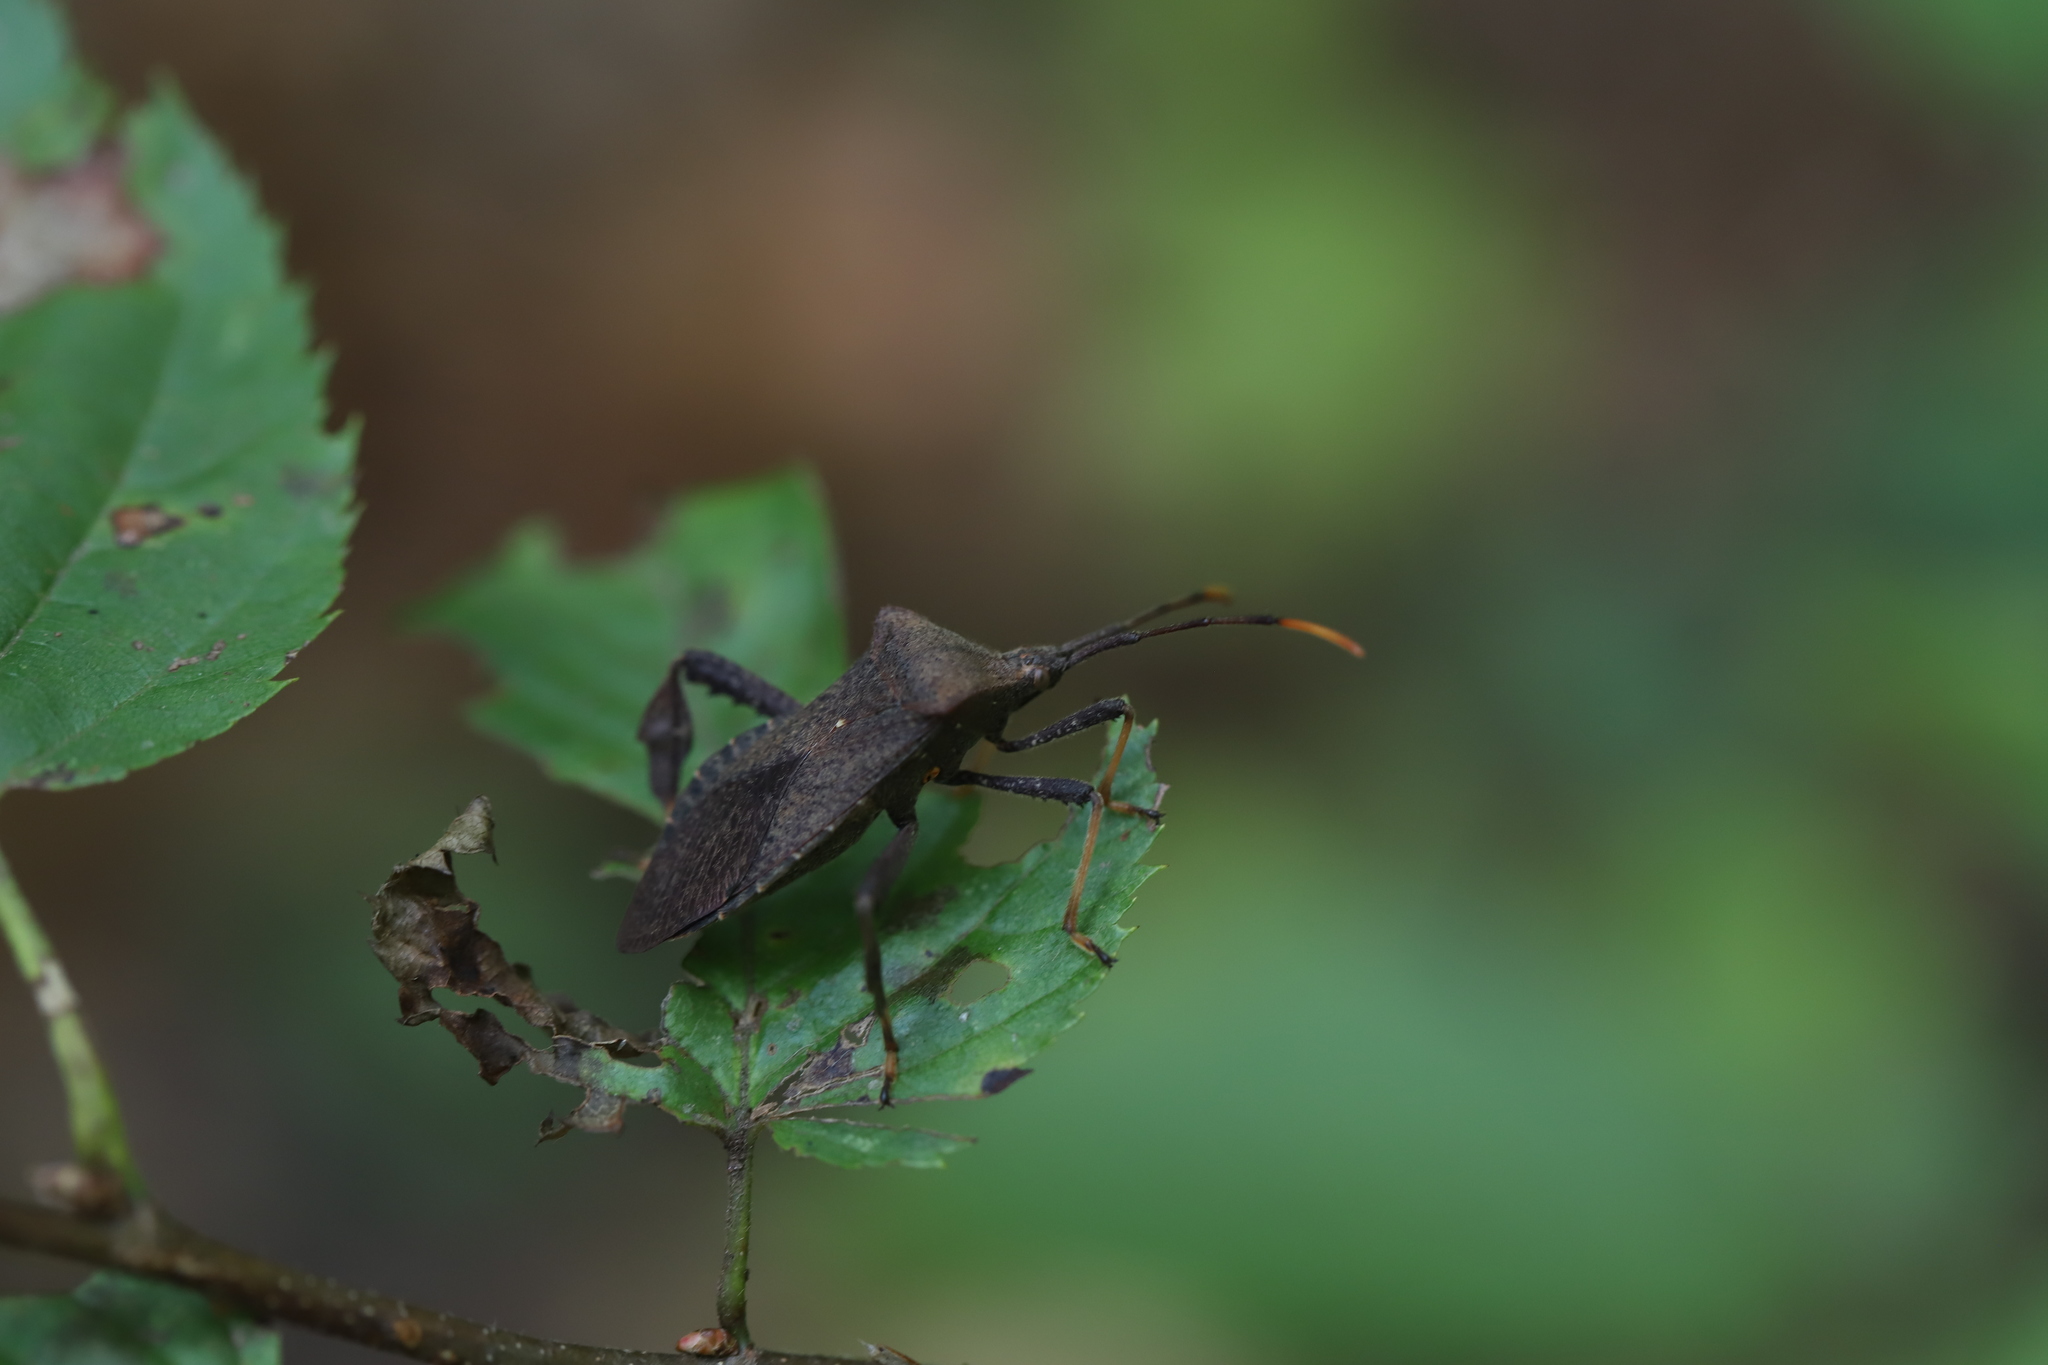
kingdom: Animalia
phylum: Arthropoda
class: Insecta
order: Hemiptera
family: Coreidae
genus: Acanthocephala
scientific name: Acanthocephala terminalis
